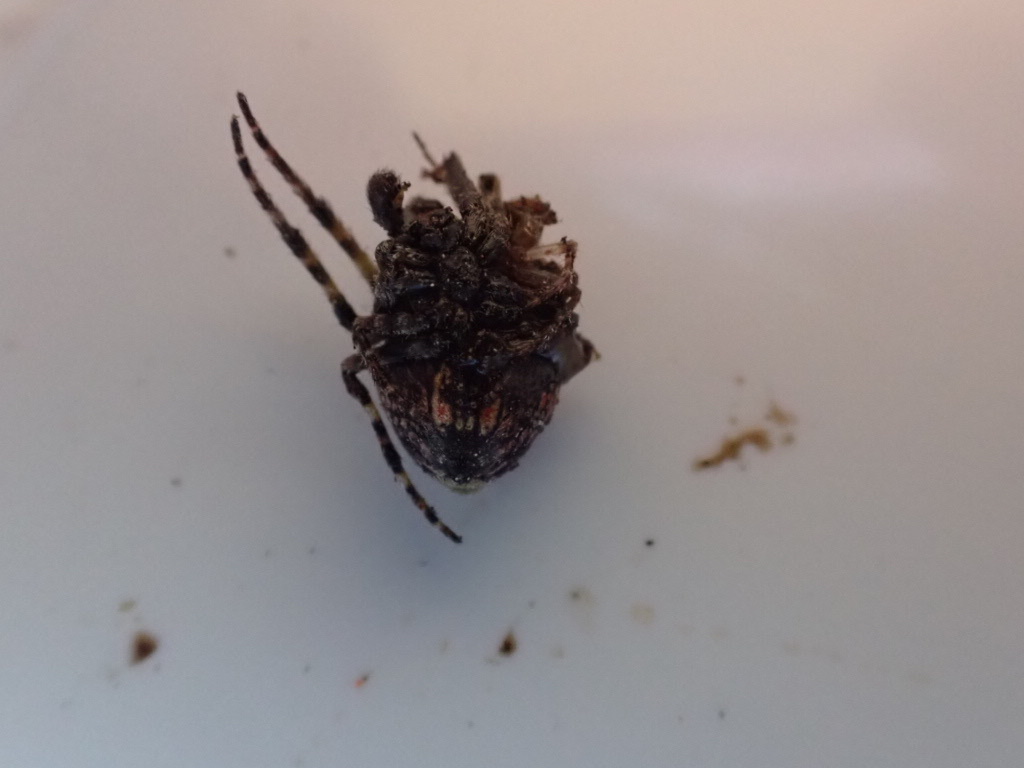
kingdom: Animalia
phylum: Arthropoda
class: Arachnida
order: Araneae
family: Araneidae
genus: Courtaraneus
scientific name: Courtaraneus orientalis
